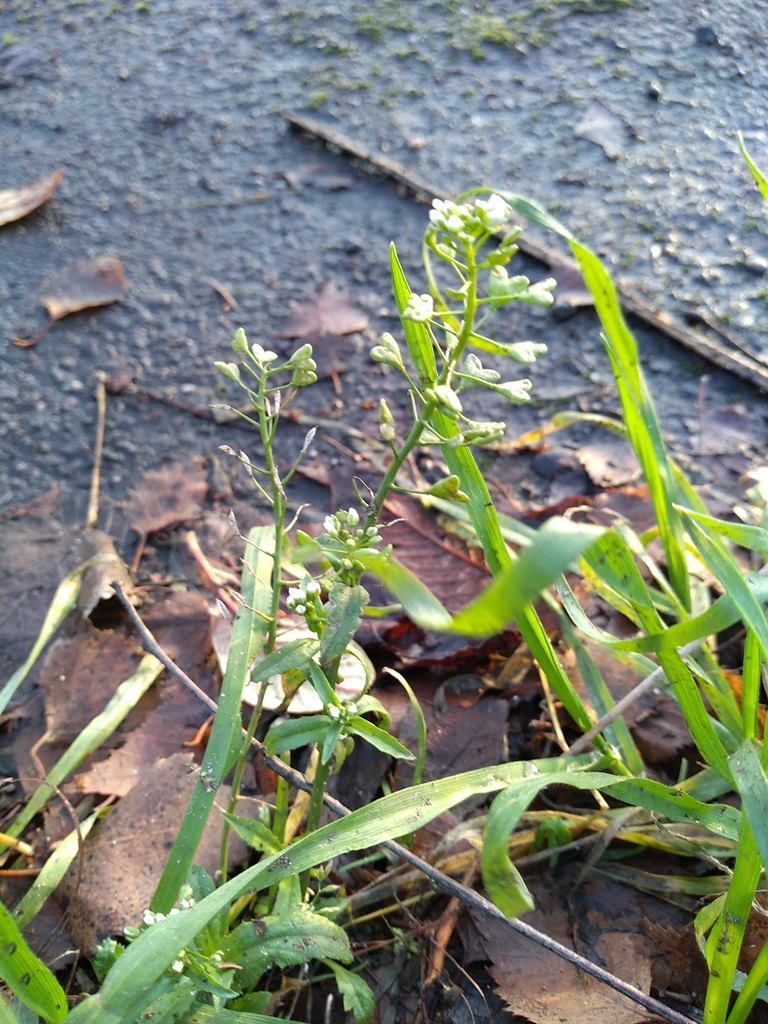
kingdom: Plantae
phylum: Tracheophyta
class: Magnoliopsida
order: Brassicales
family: Brassicaceae
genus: Capsella
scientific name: Capsella bursa-pastoris
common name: Shepherd's purse
